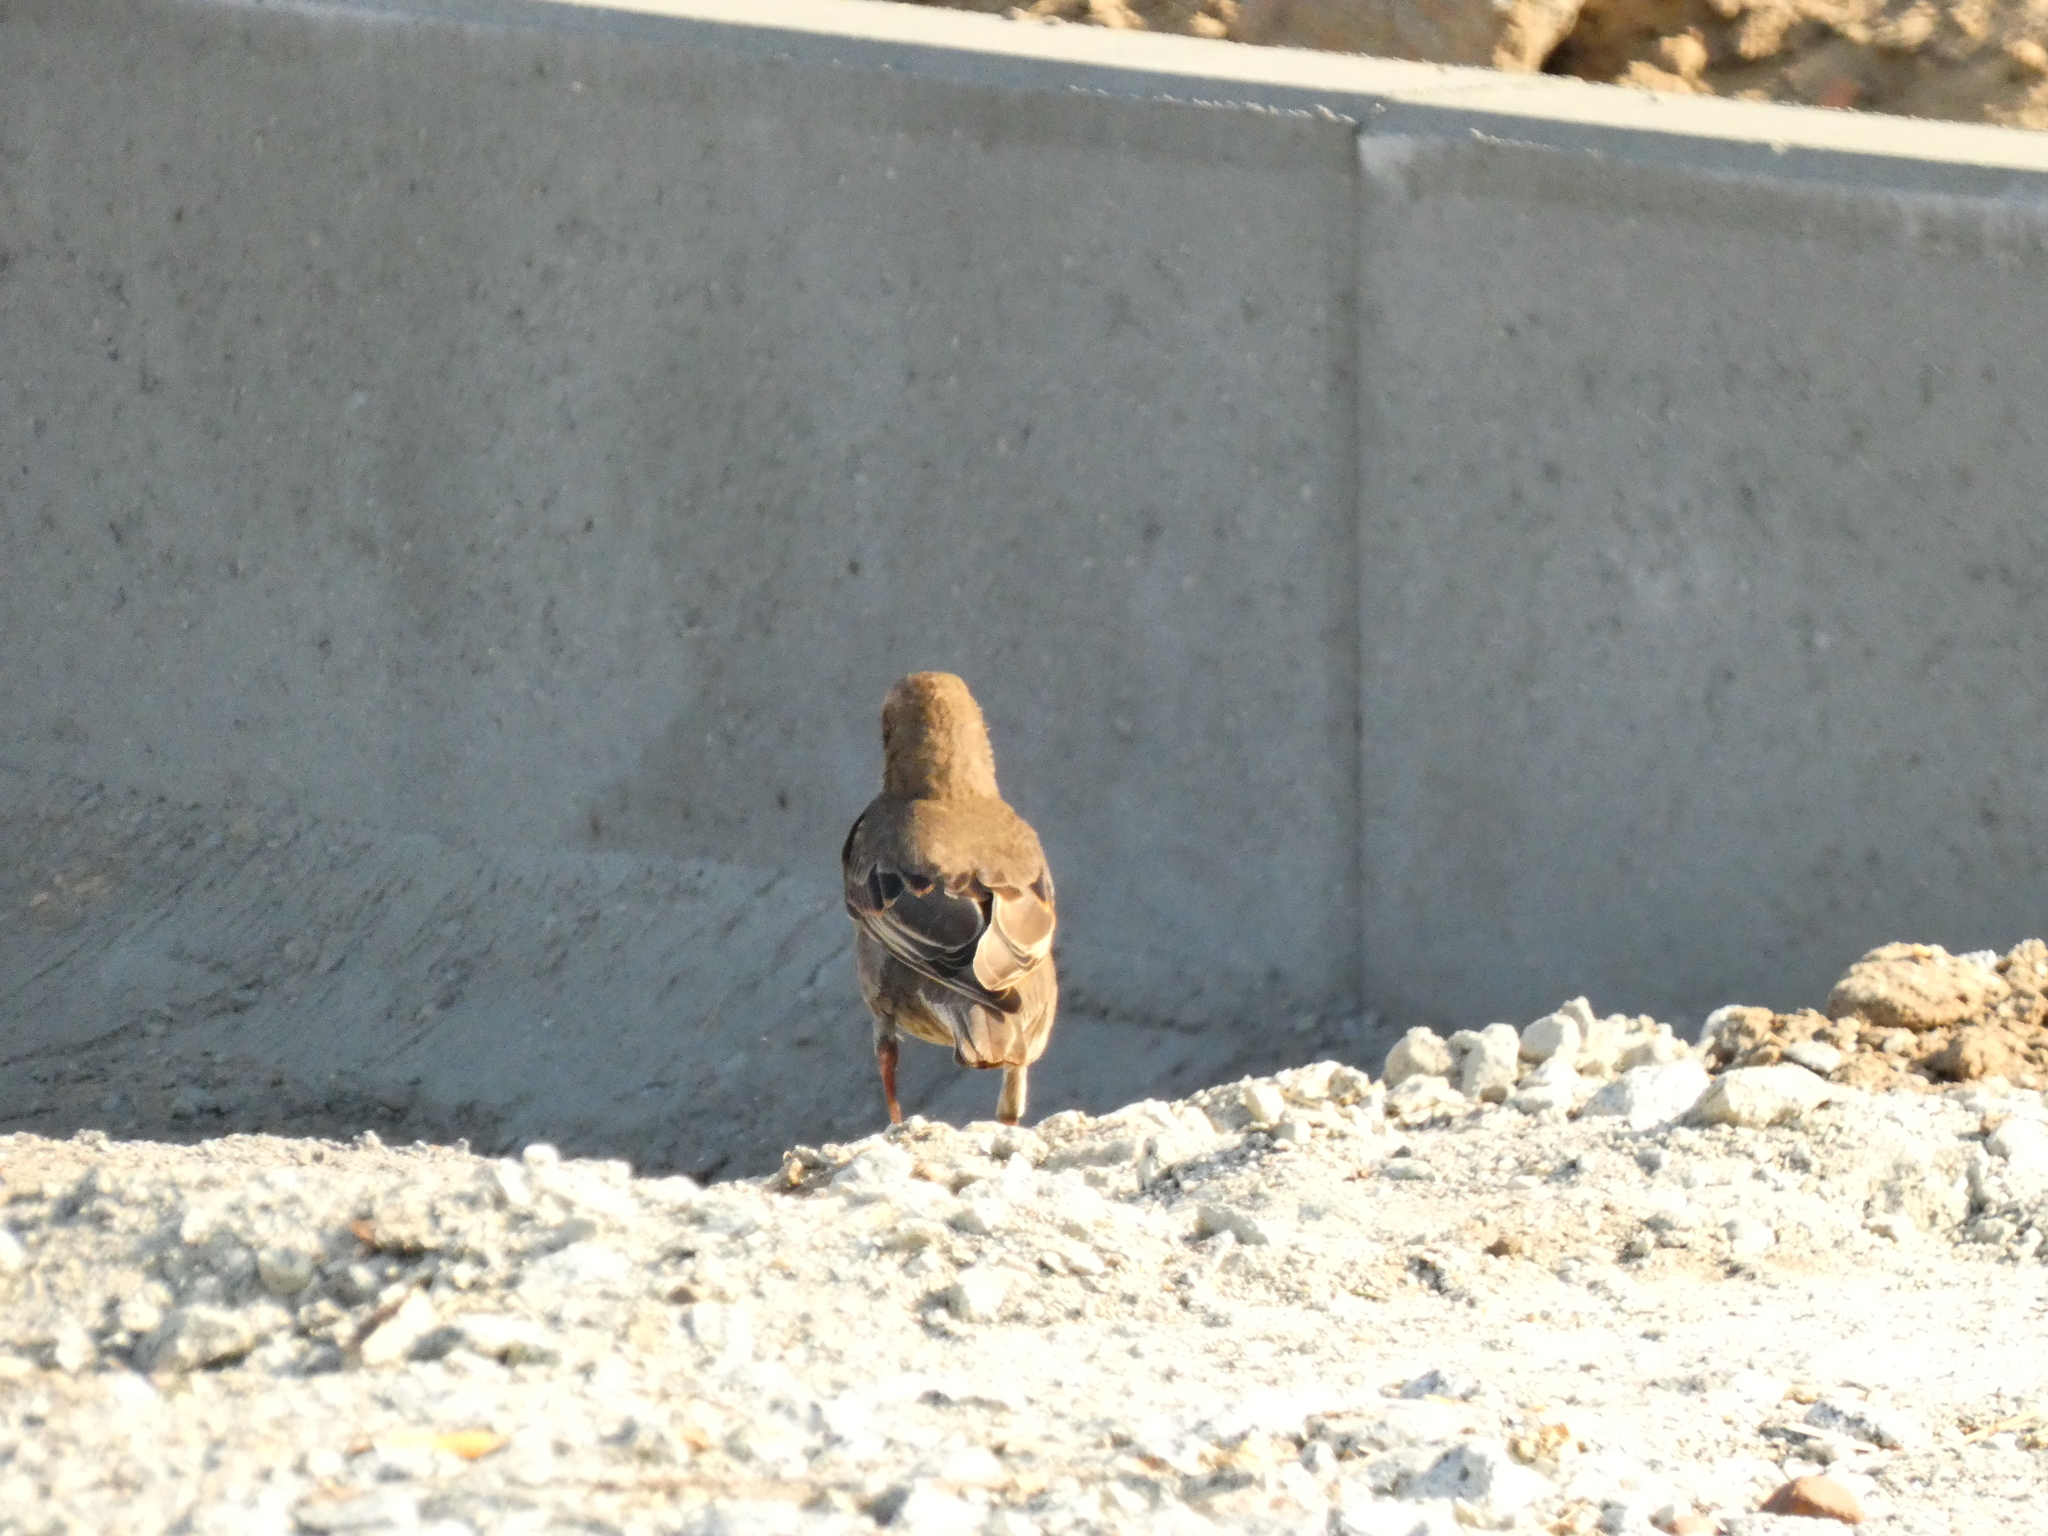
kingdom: Animalia
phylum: Chordata
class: Aves
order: Passeriformes
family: Sturnidae
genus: Sturnus
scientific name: Sturnus vulgaris
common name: Common starling
